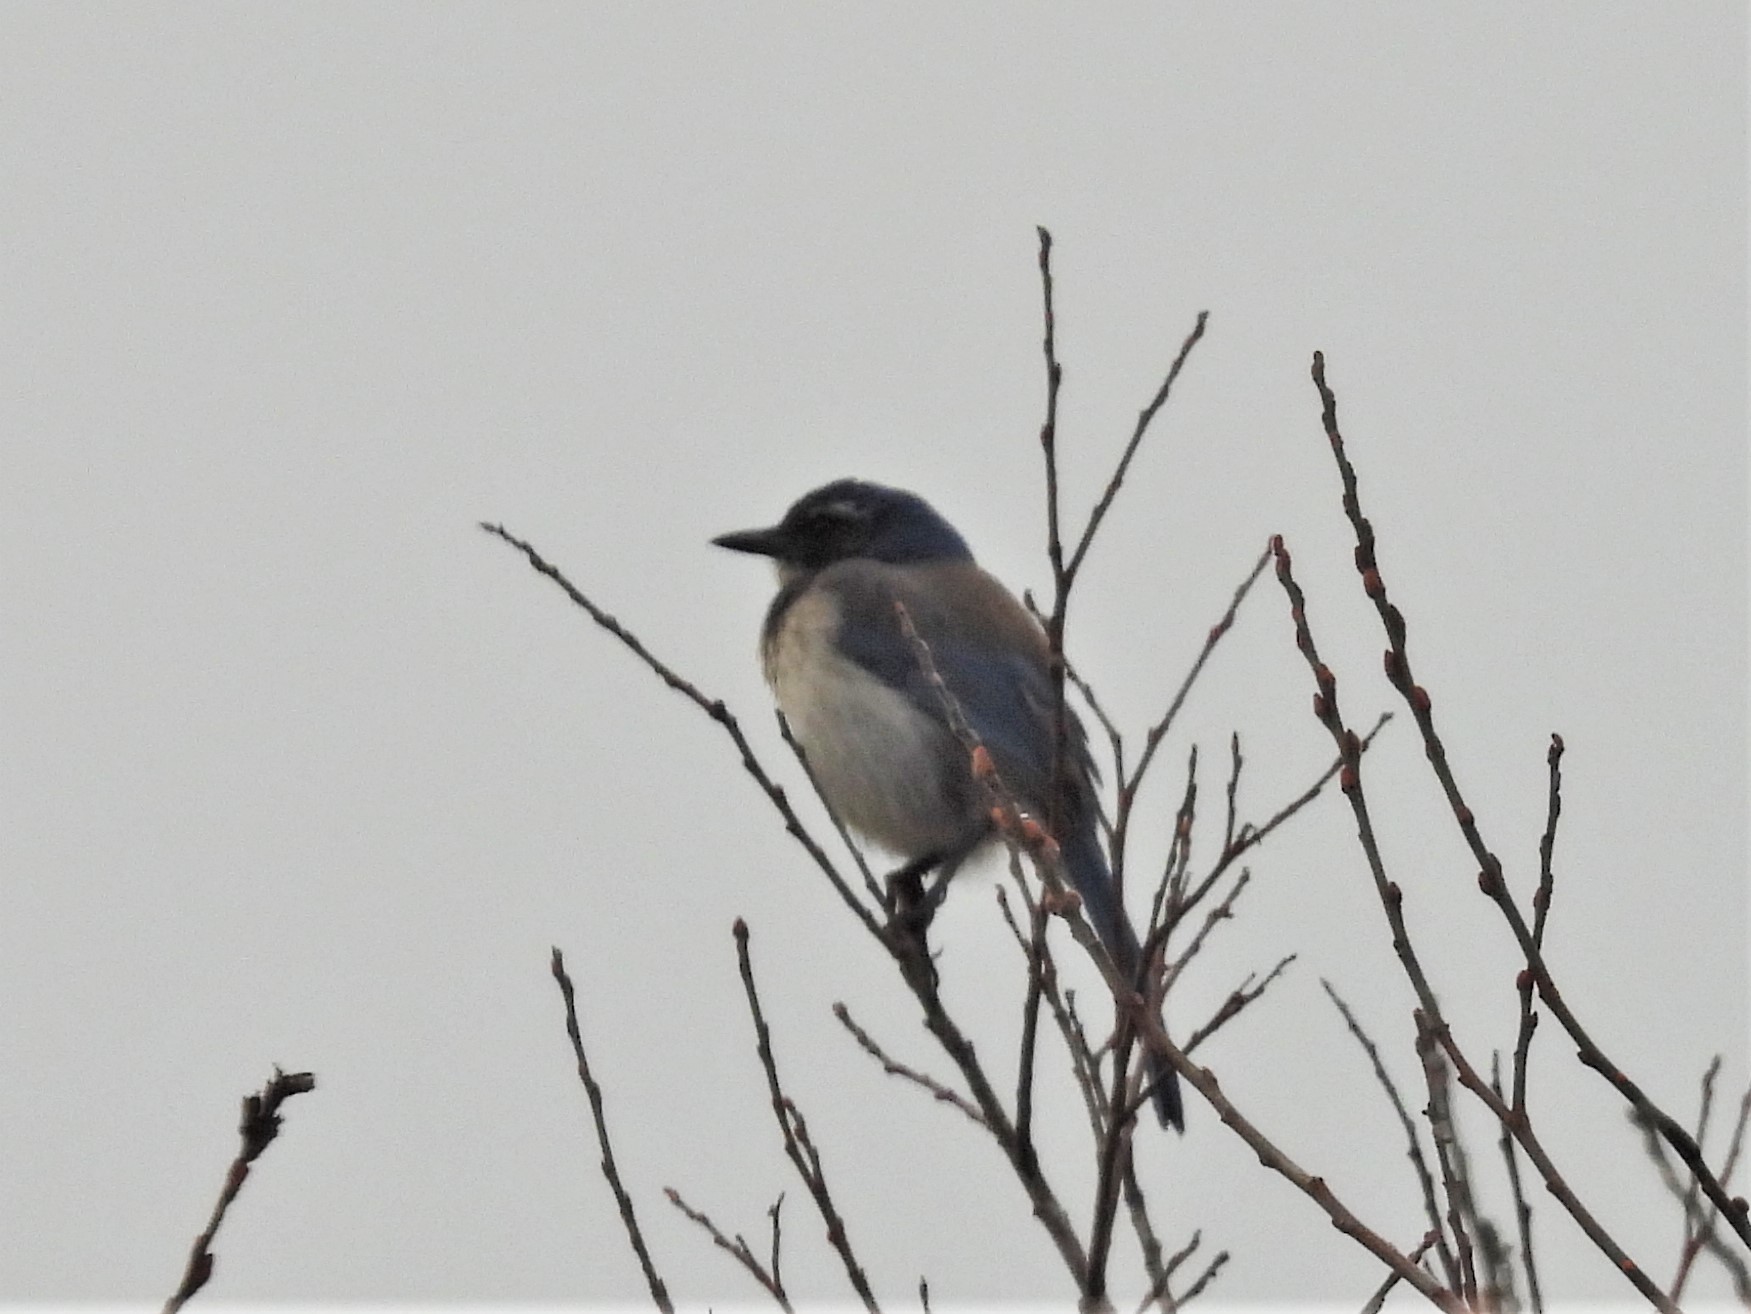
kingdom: Animalia
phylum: Chordata
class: Aves
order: Passeriformes
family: Corvidae
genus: Aphelocoma
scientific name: Aphelocoma californica
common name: California scrub-jay
